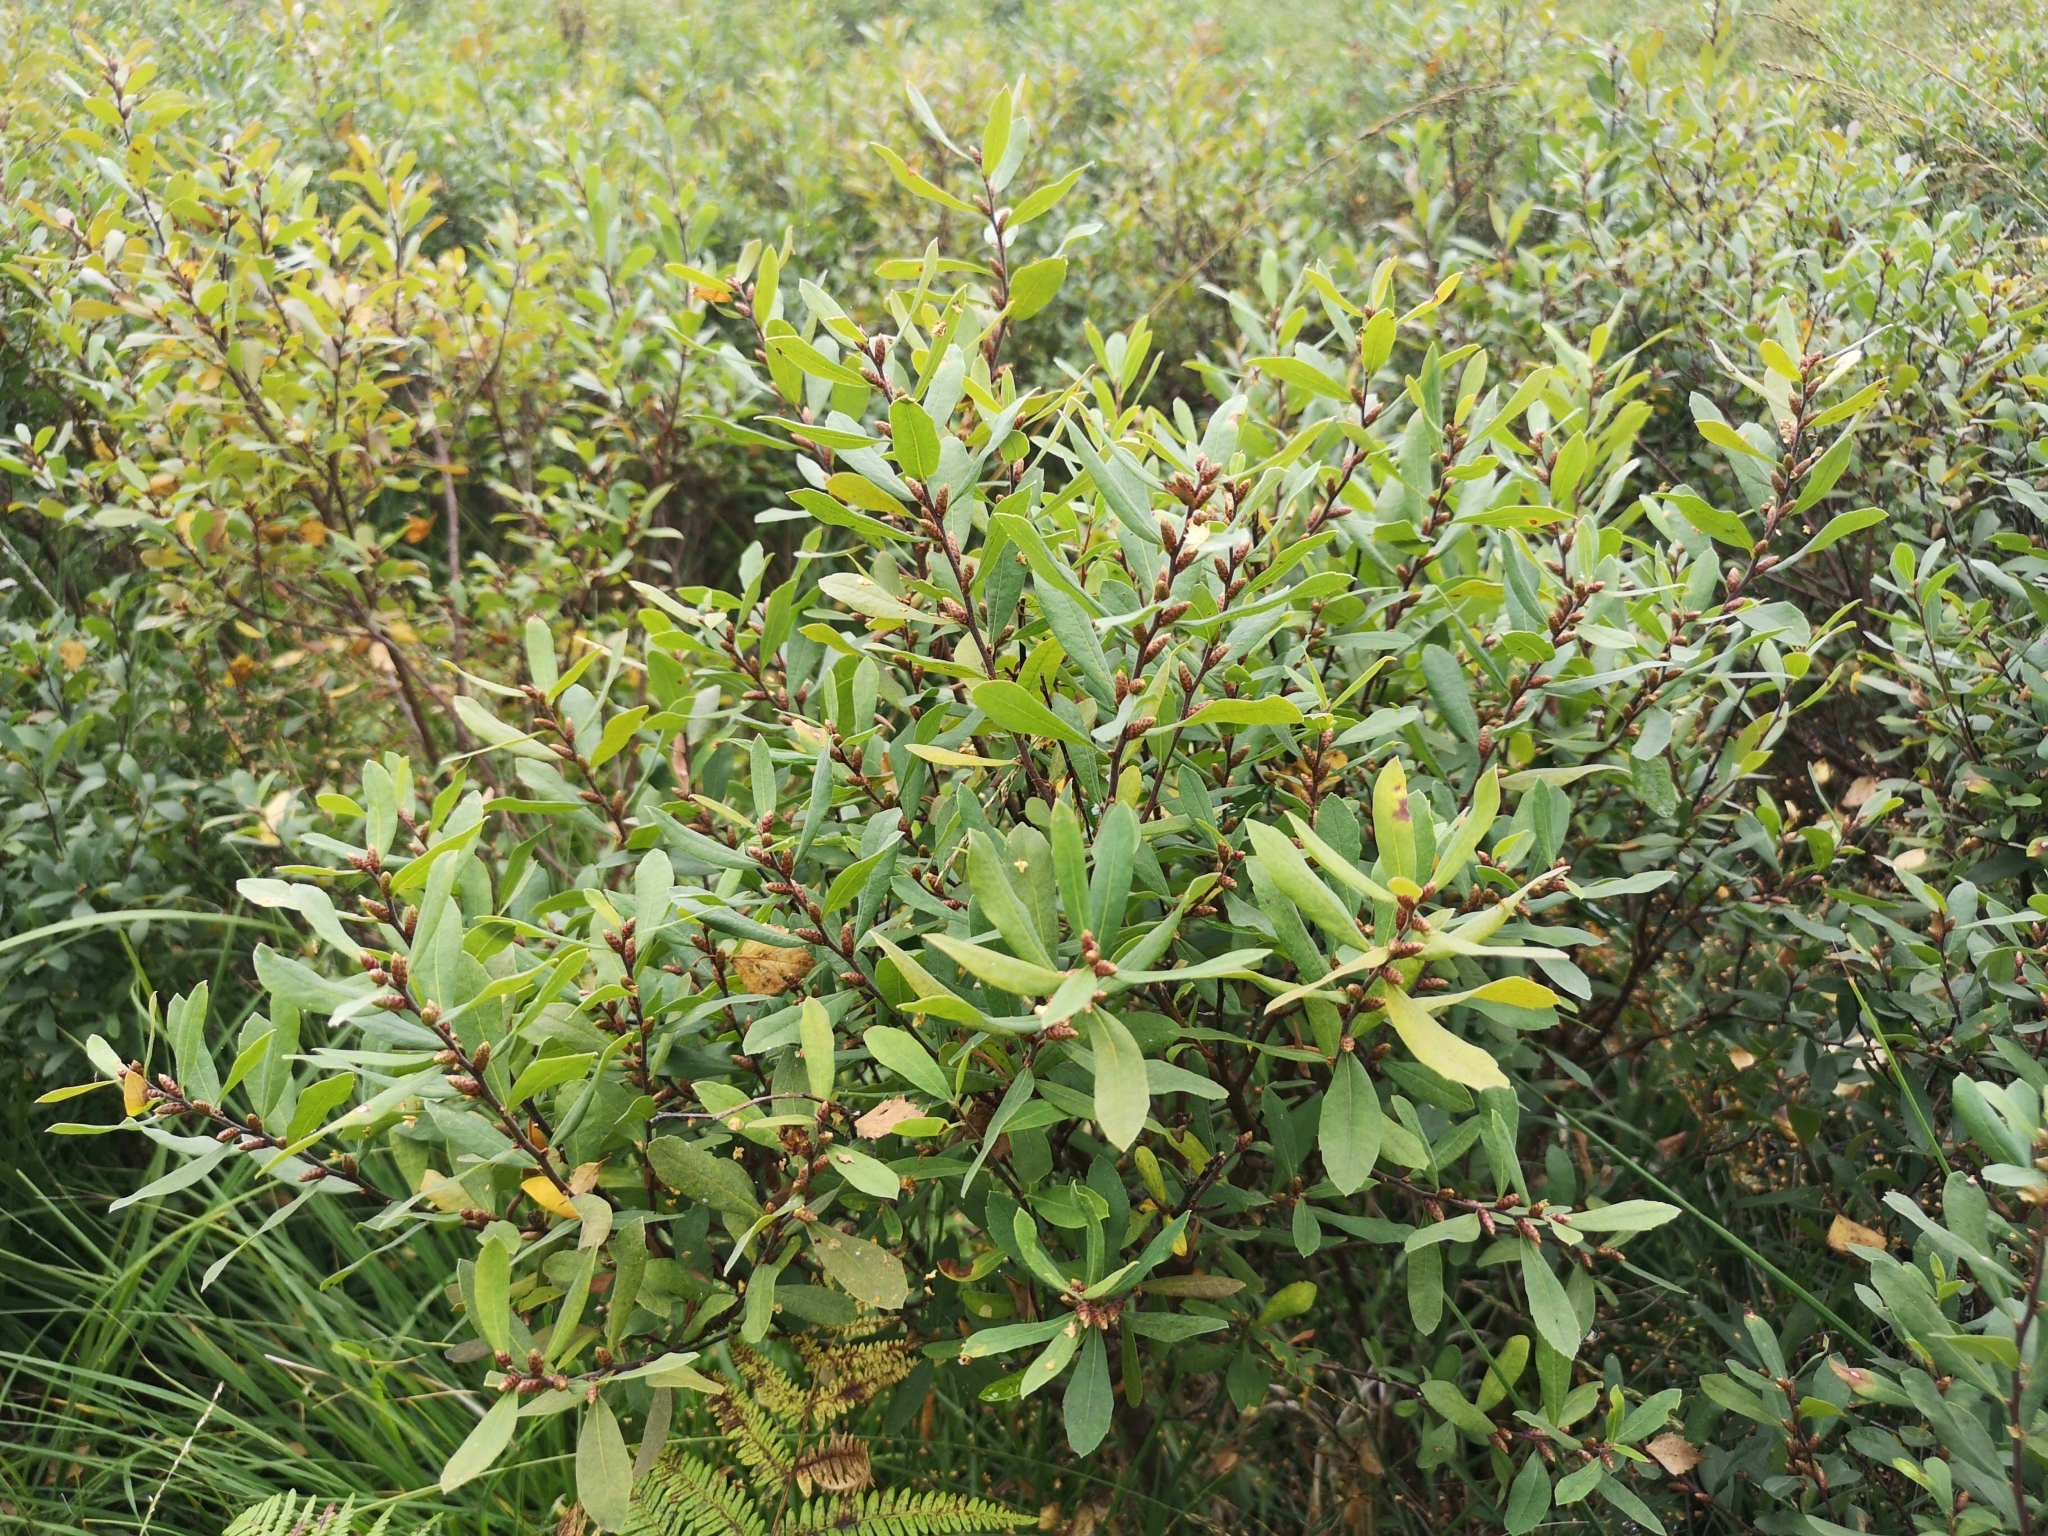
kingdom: Plantae
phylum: Tracheophyta
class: Magnoliopsida
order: Fagales
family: Myricaceae
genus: Myrica
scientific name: Myrica gale
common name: Sweet gale
